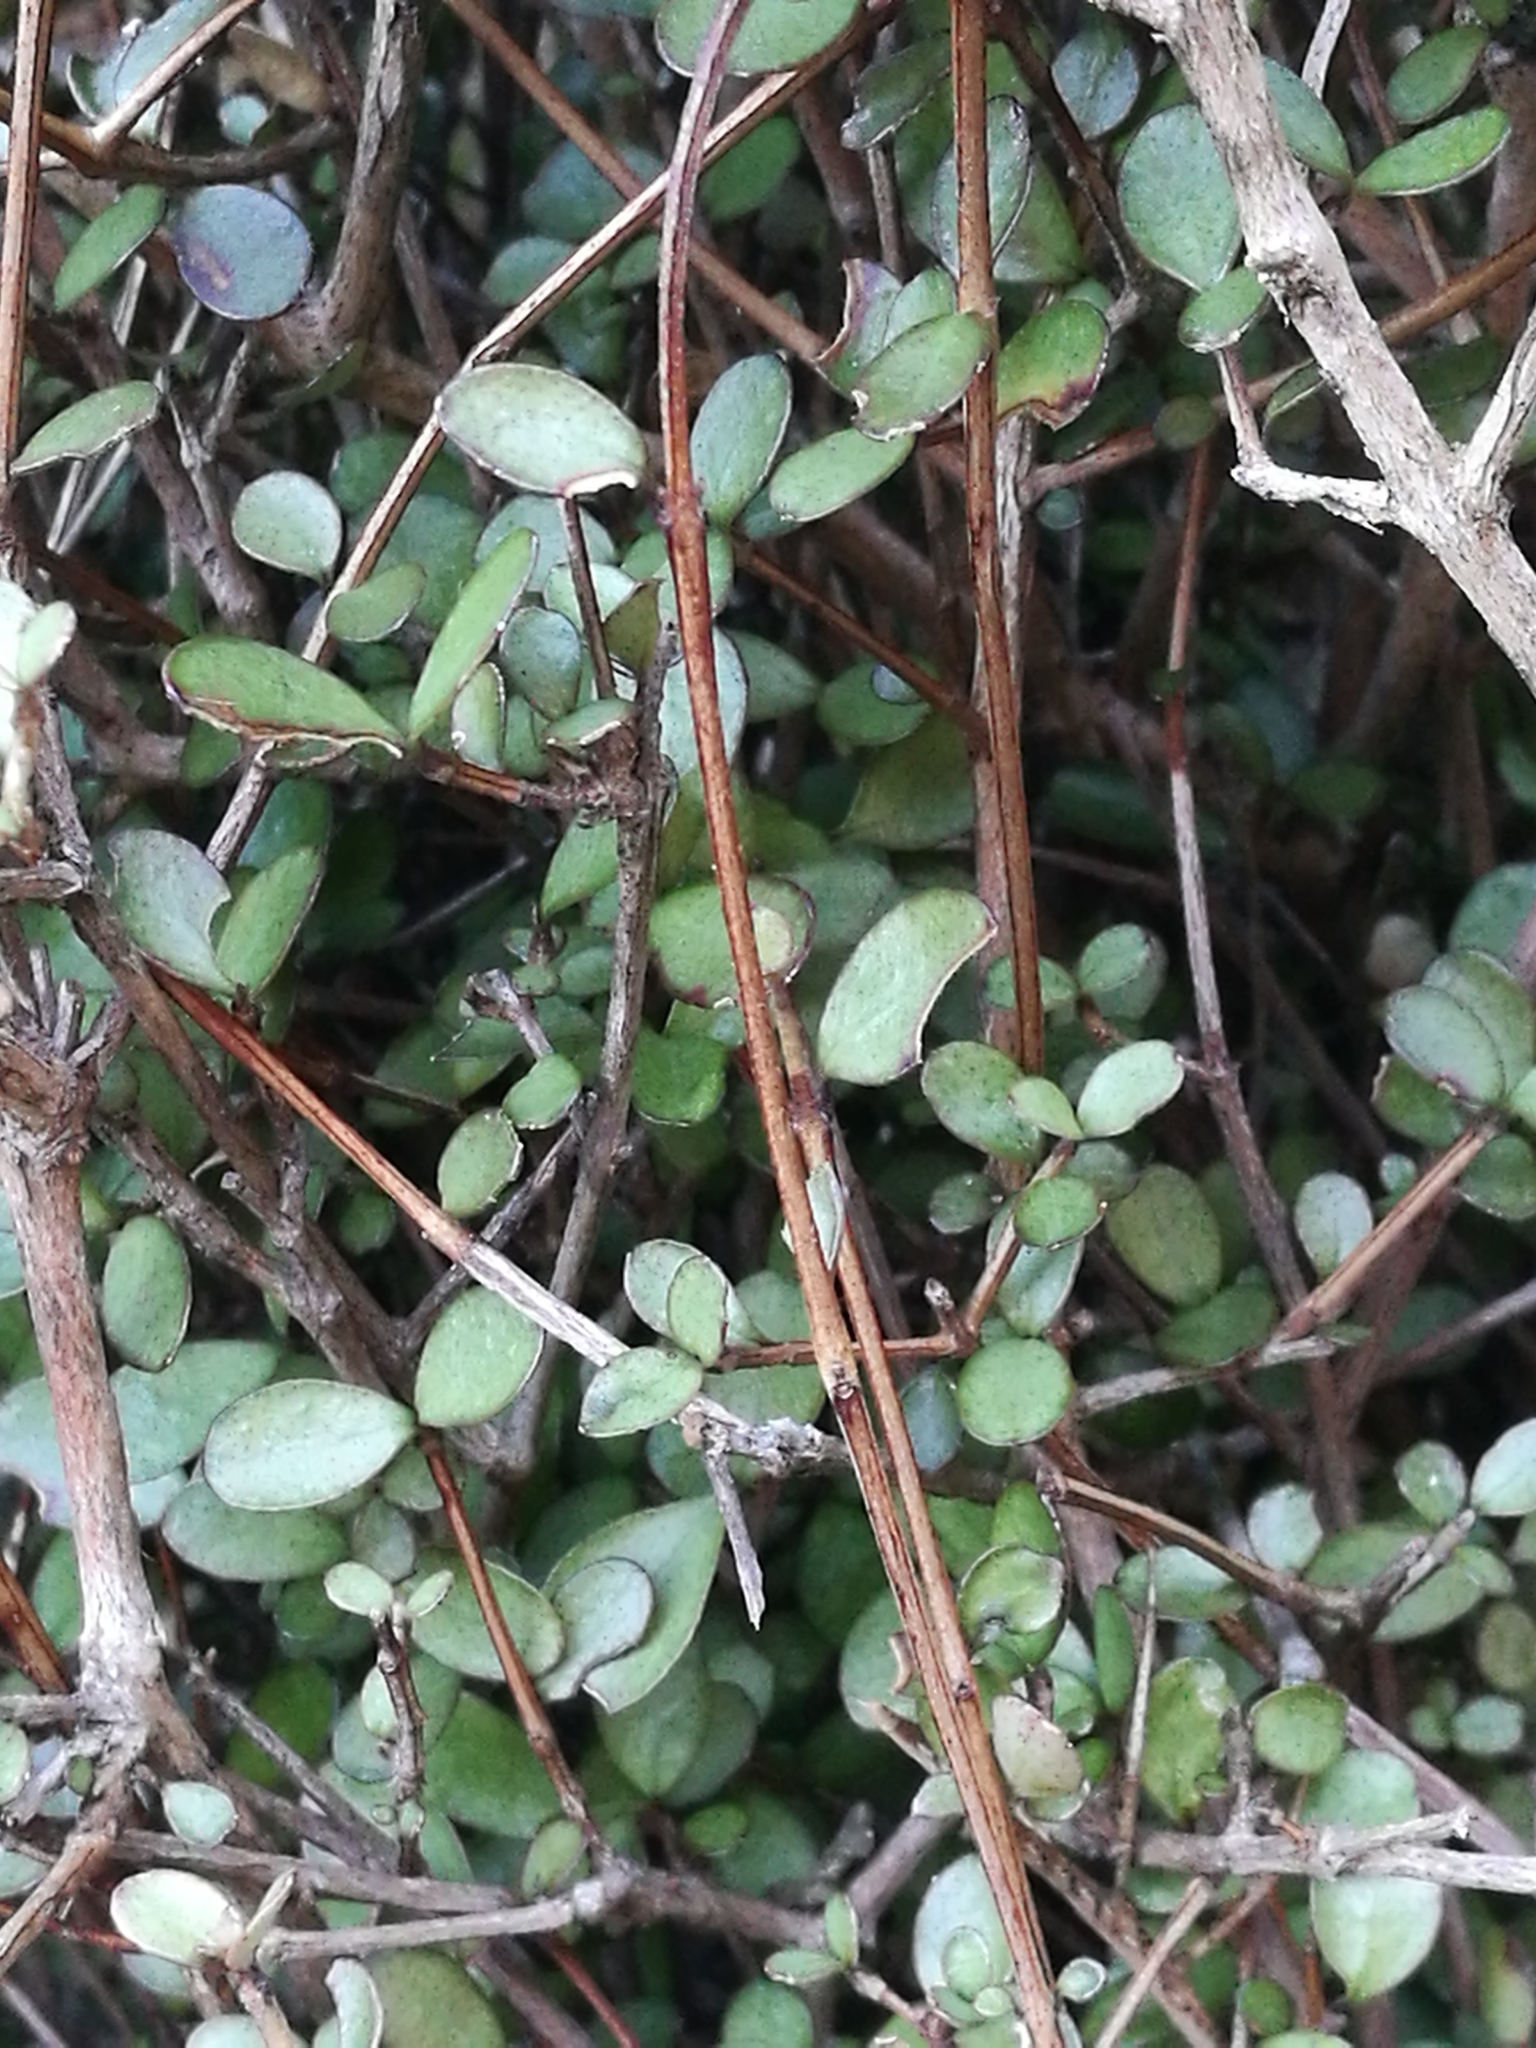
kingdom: Plantae
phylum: Tracheophyta
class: Magnoliopsida
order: Myrtales
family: Myrtaceae
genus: Neomyrtus
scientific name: Neomyrtus pedunculata
